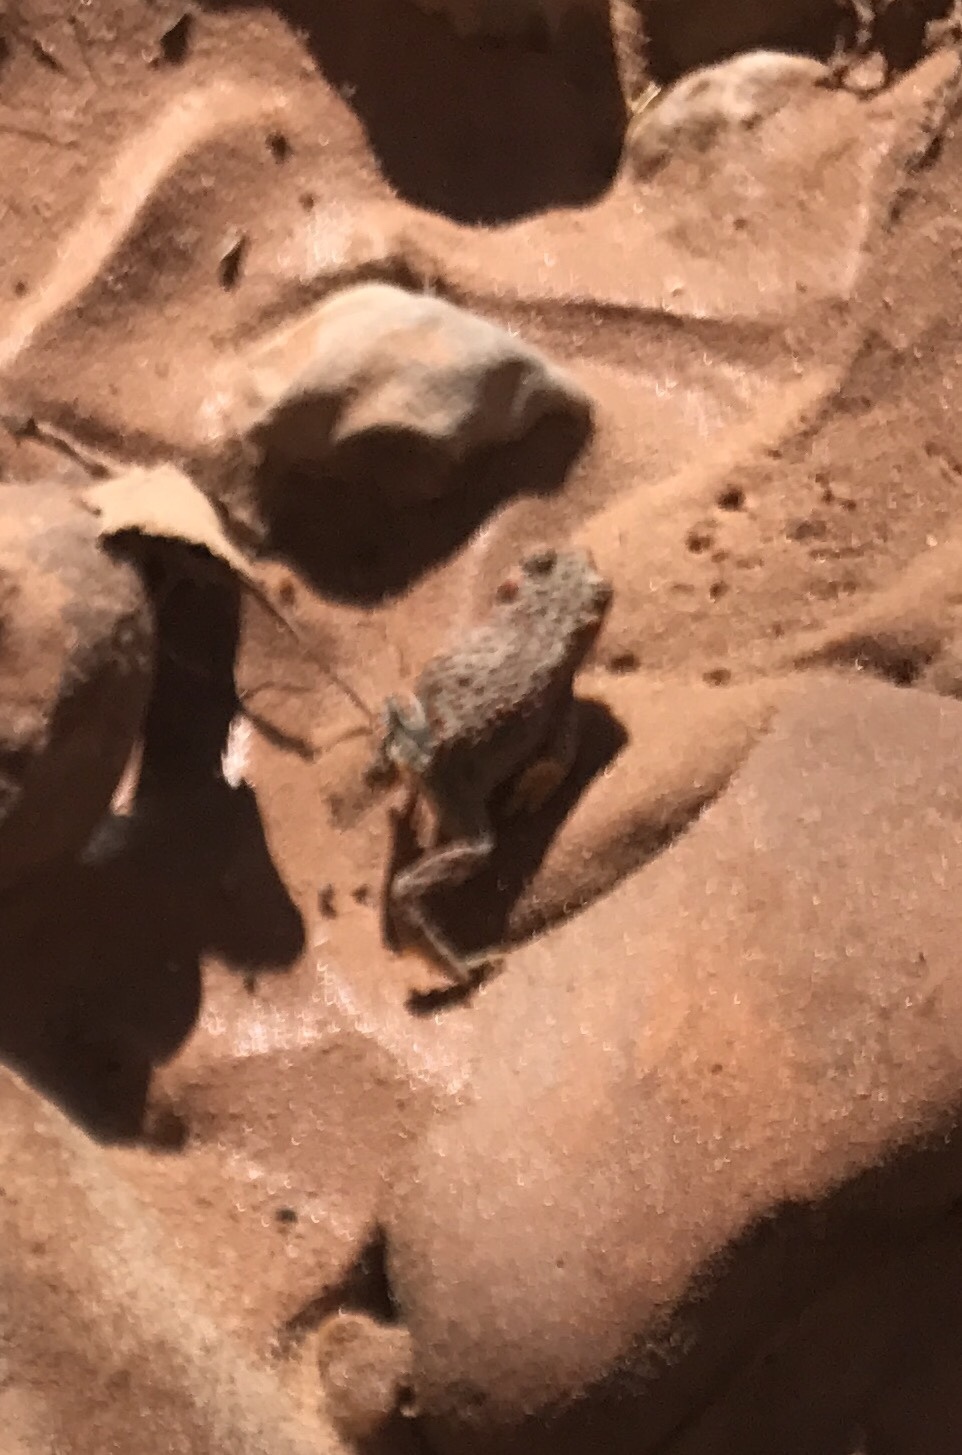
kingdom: Animalia
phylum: Chordata
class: Amphibia
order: Anura
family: Bufonidae
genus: Anaxyrus
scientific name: Anaxyrus punctatus
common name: Red-spotted toad
